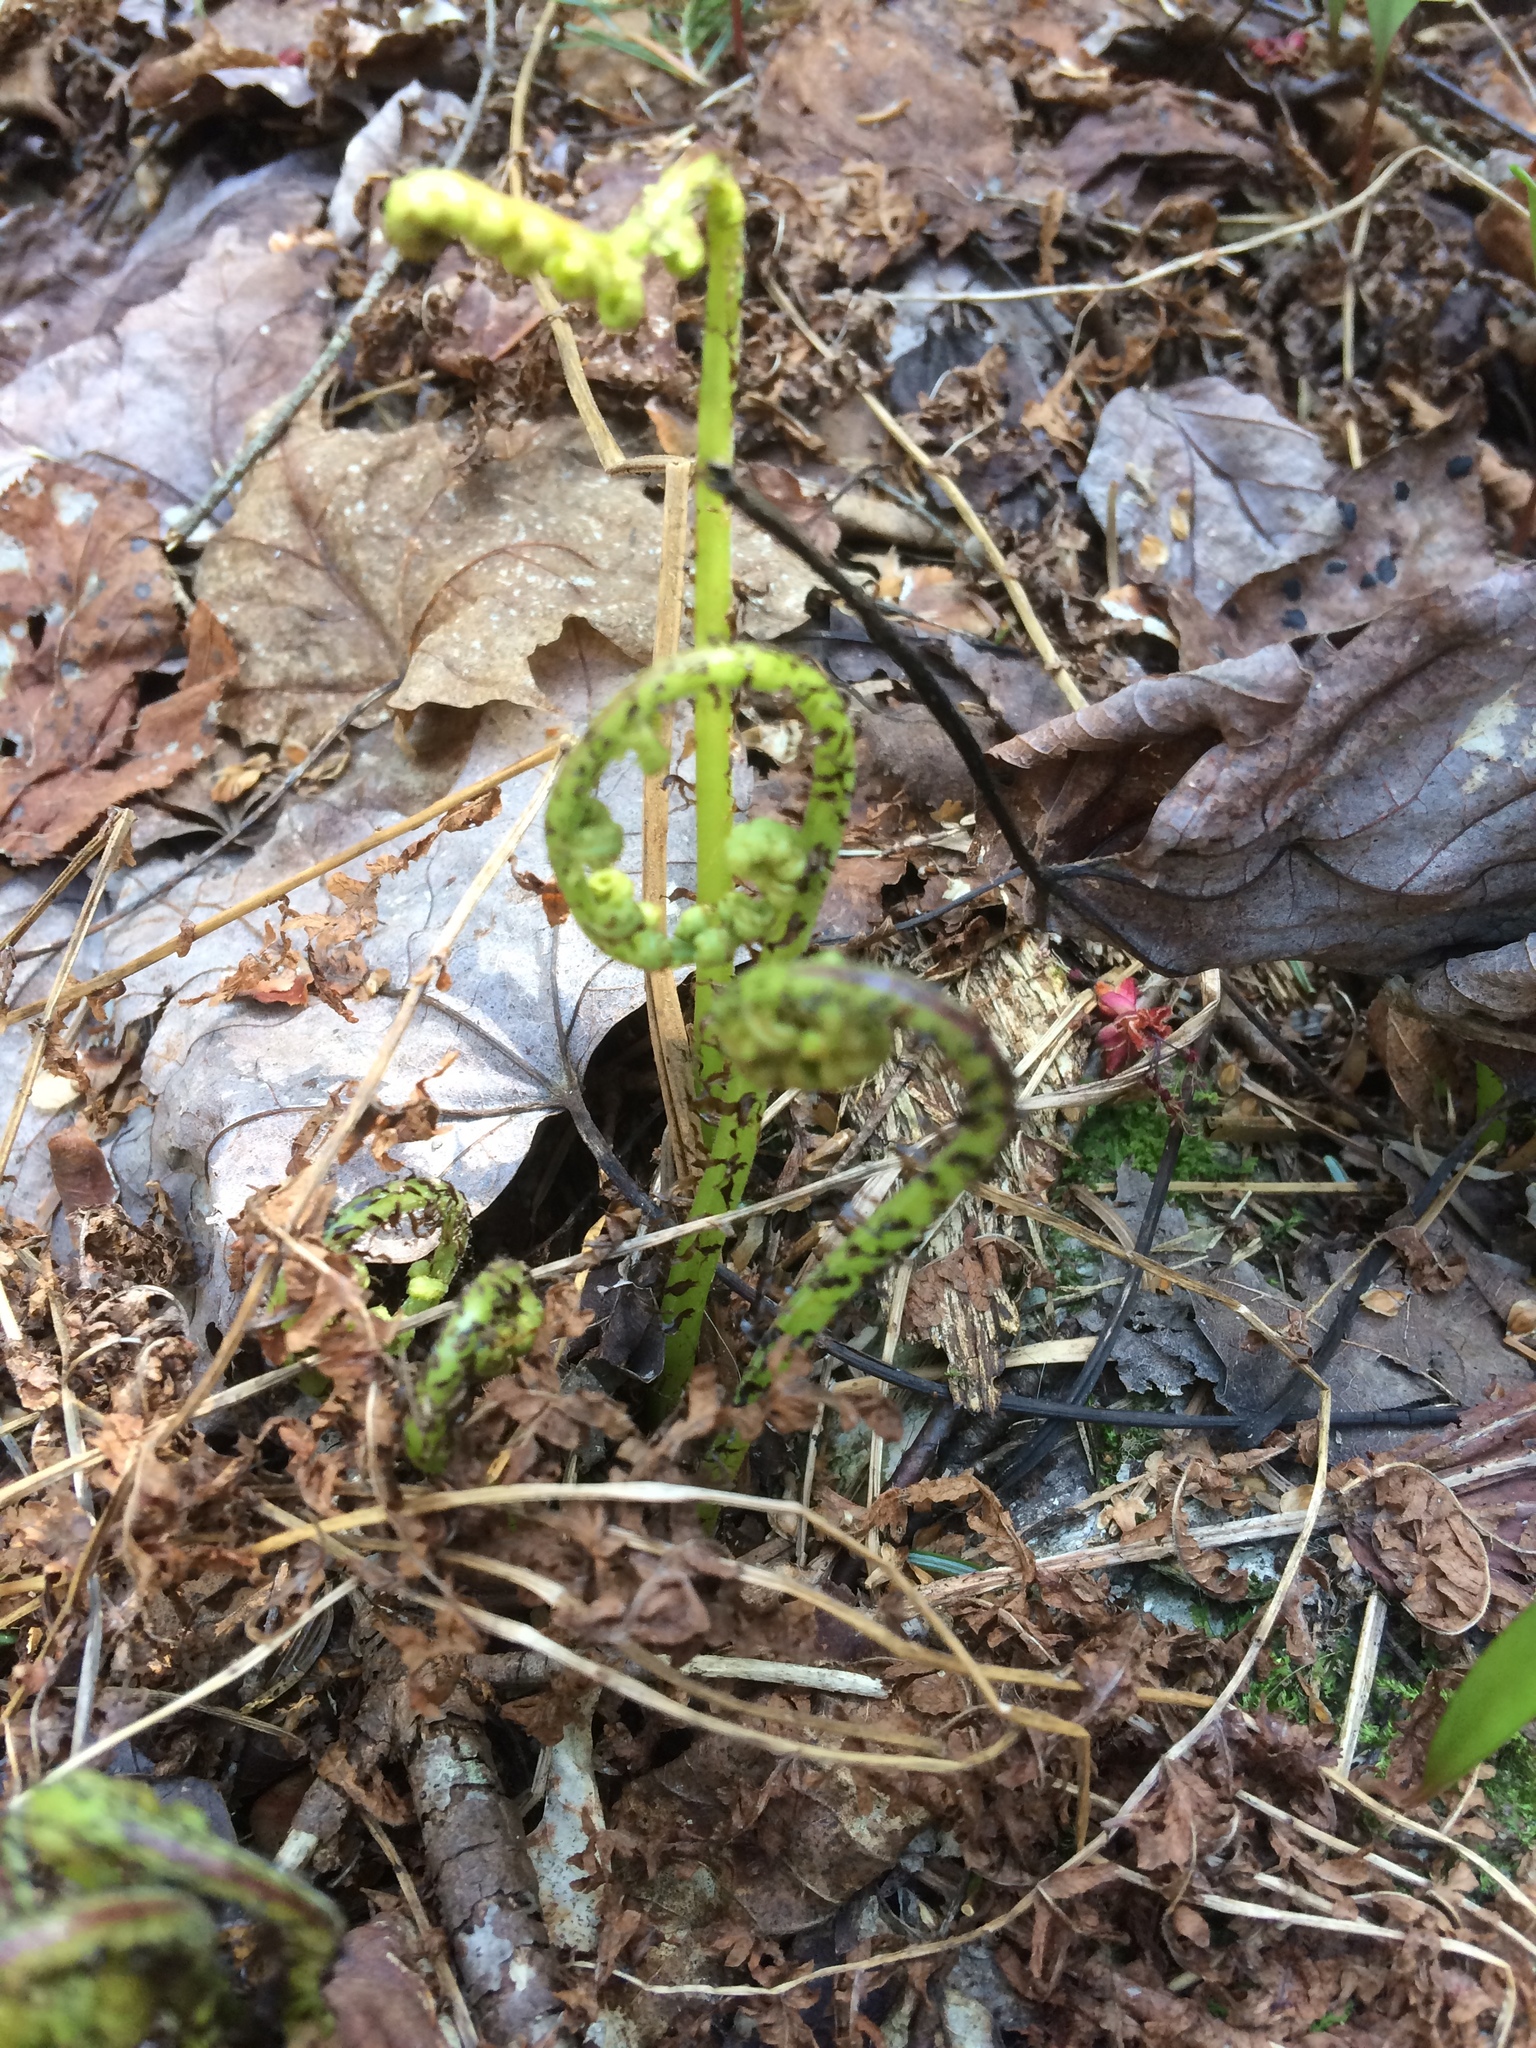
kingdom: Plantae
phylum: Tracheophyta
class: Polypodiopsida
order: Polypodiales
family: Athyriaceae
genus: Athyrium
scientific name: Athyrium angustum
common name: Northern lady fern
